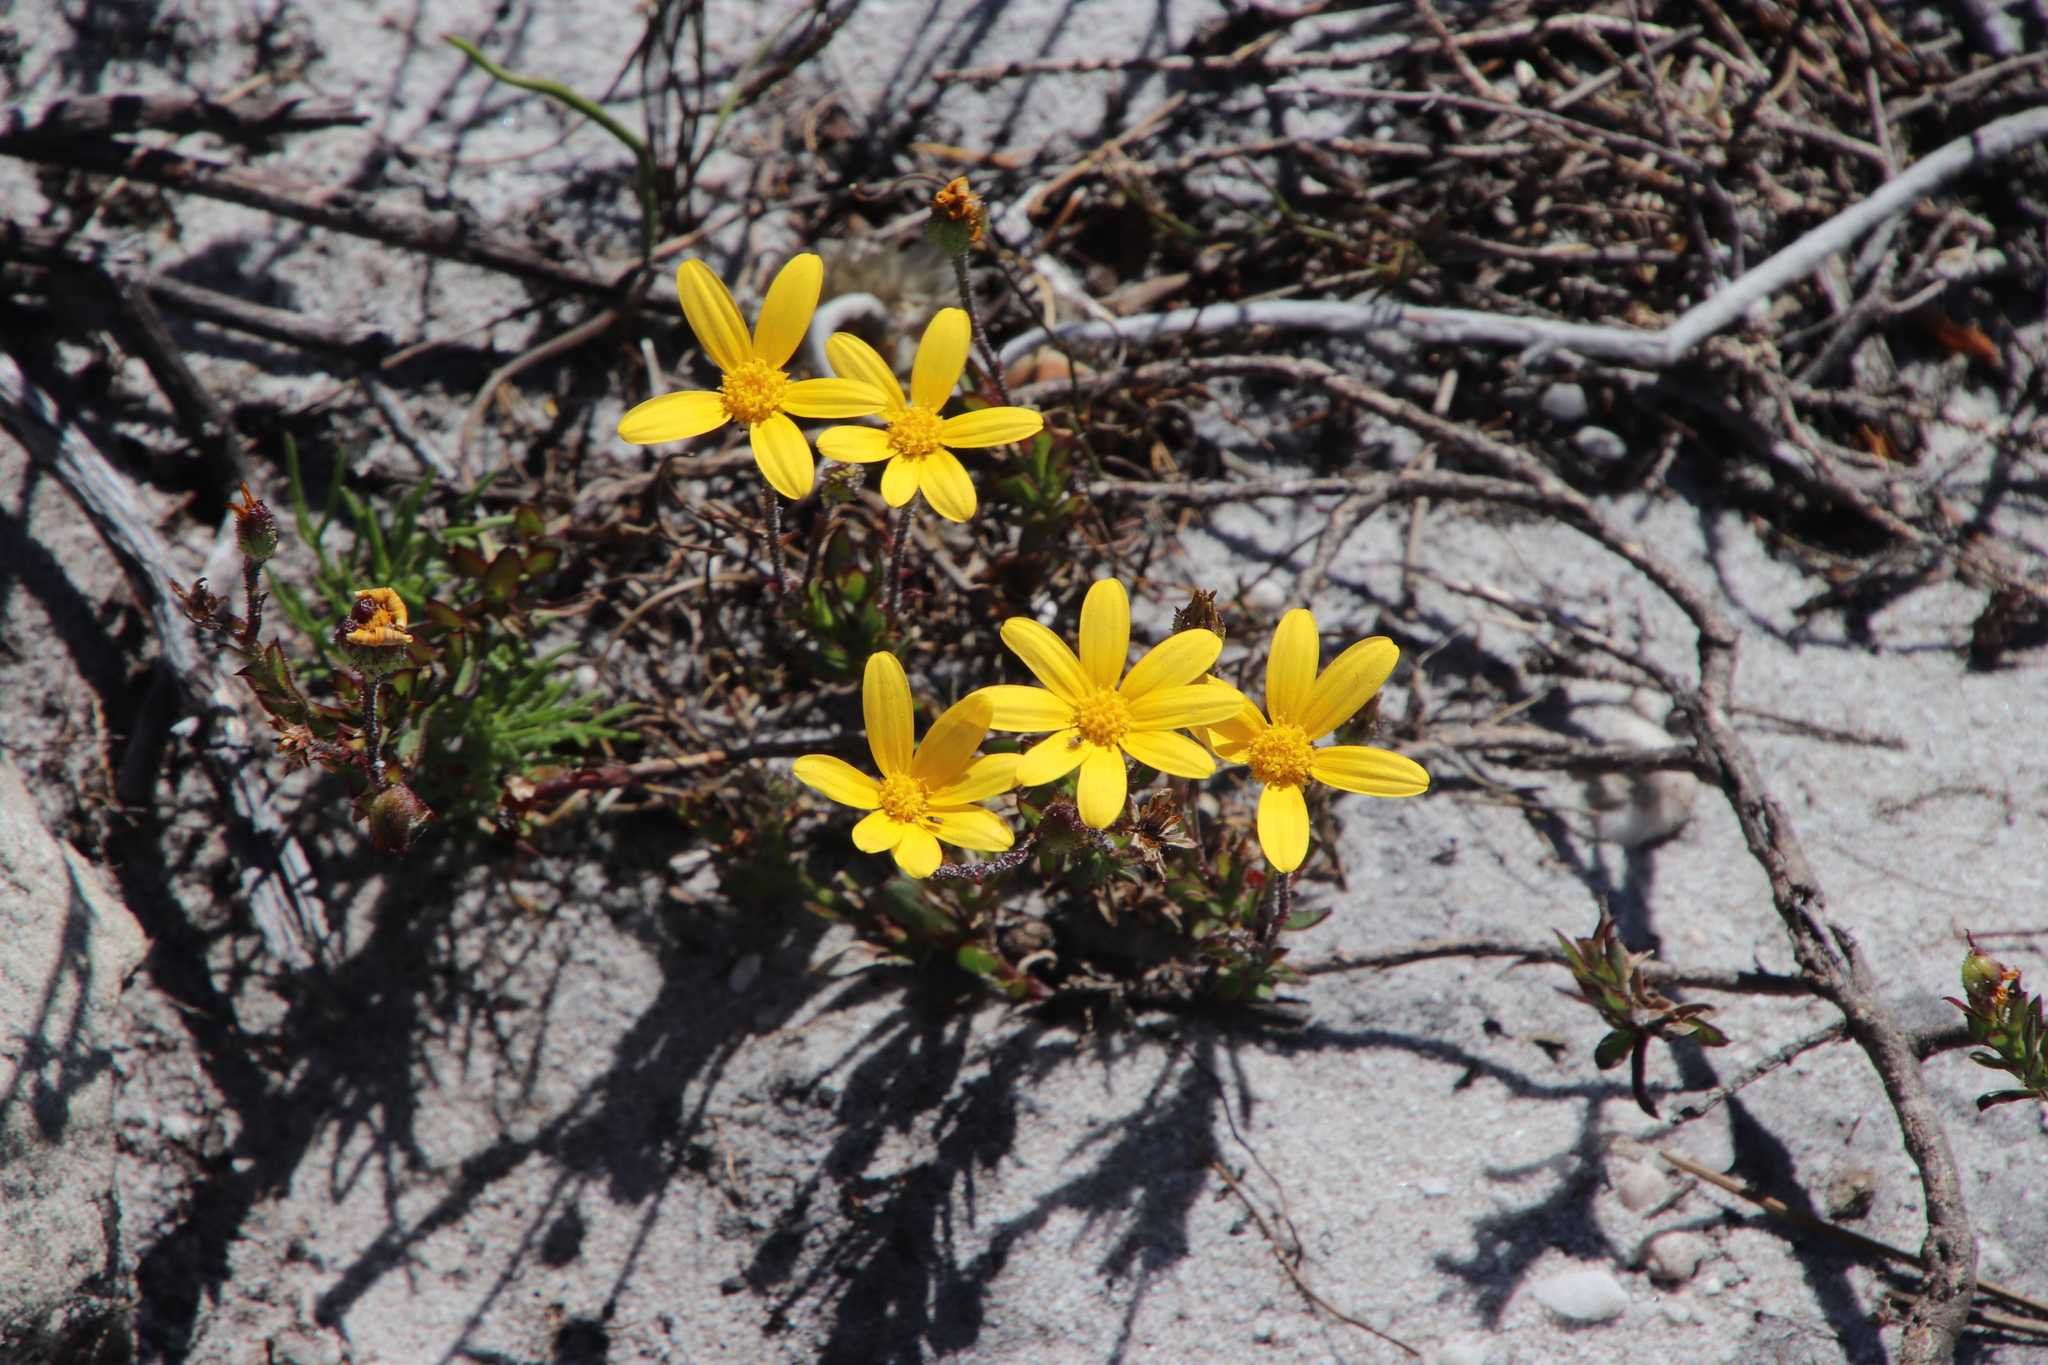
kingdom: Plantae
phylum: Tracheophyta
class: Magnoliopsida
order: Asterales
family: Asteraceae
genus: Osteospermum
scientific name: Osteospermum polygaloides
